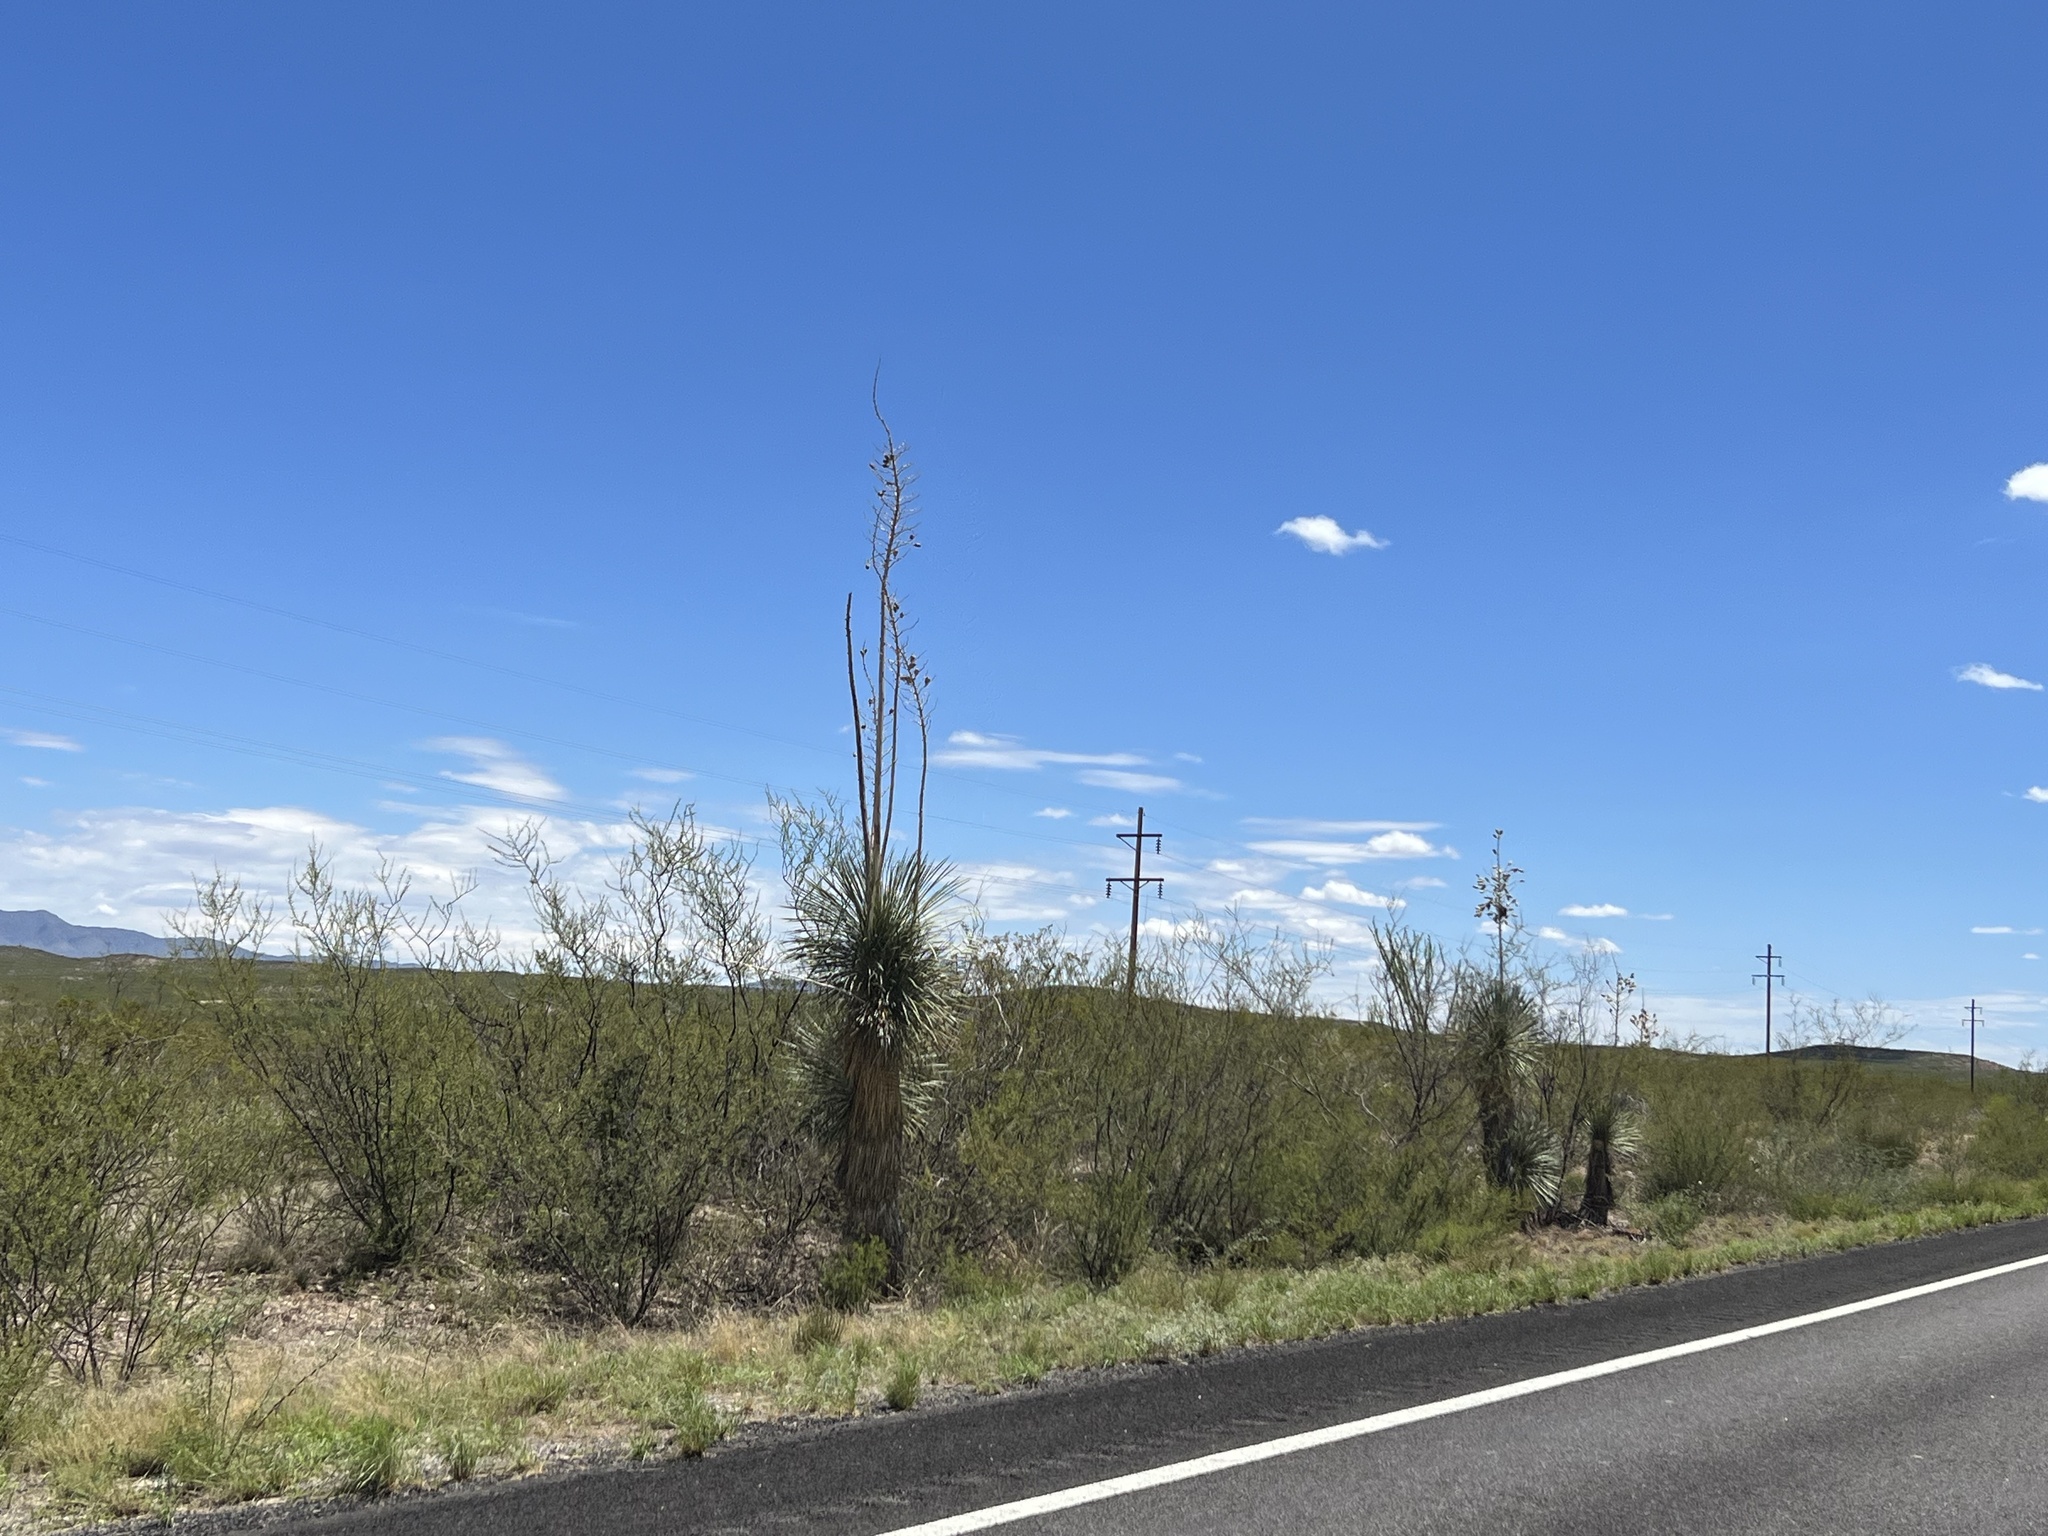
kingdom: Plantae
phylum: Tracheophyta
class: Liliopsida
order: Asparagales
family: Asparagaceae
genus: Yucca
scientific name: Yucca elata
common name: Palmella
